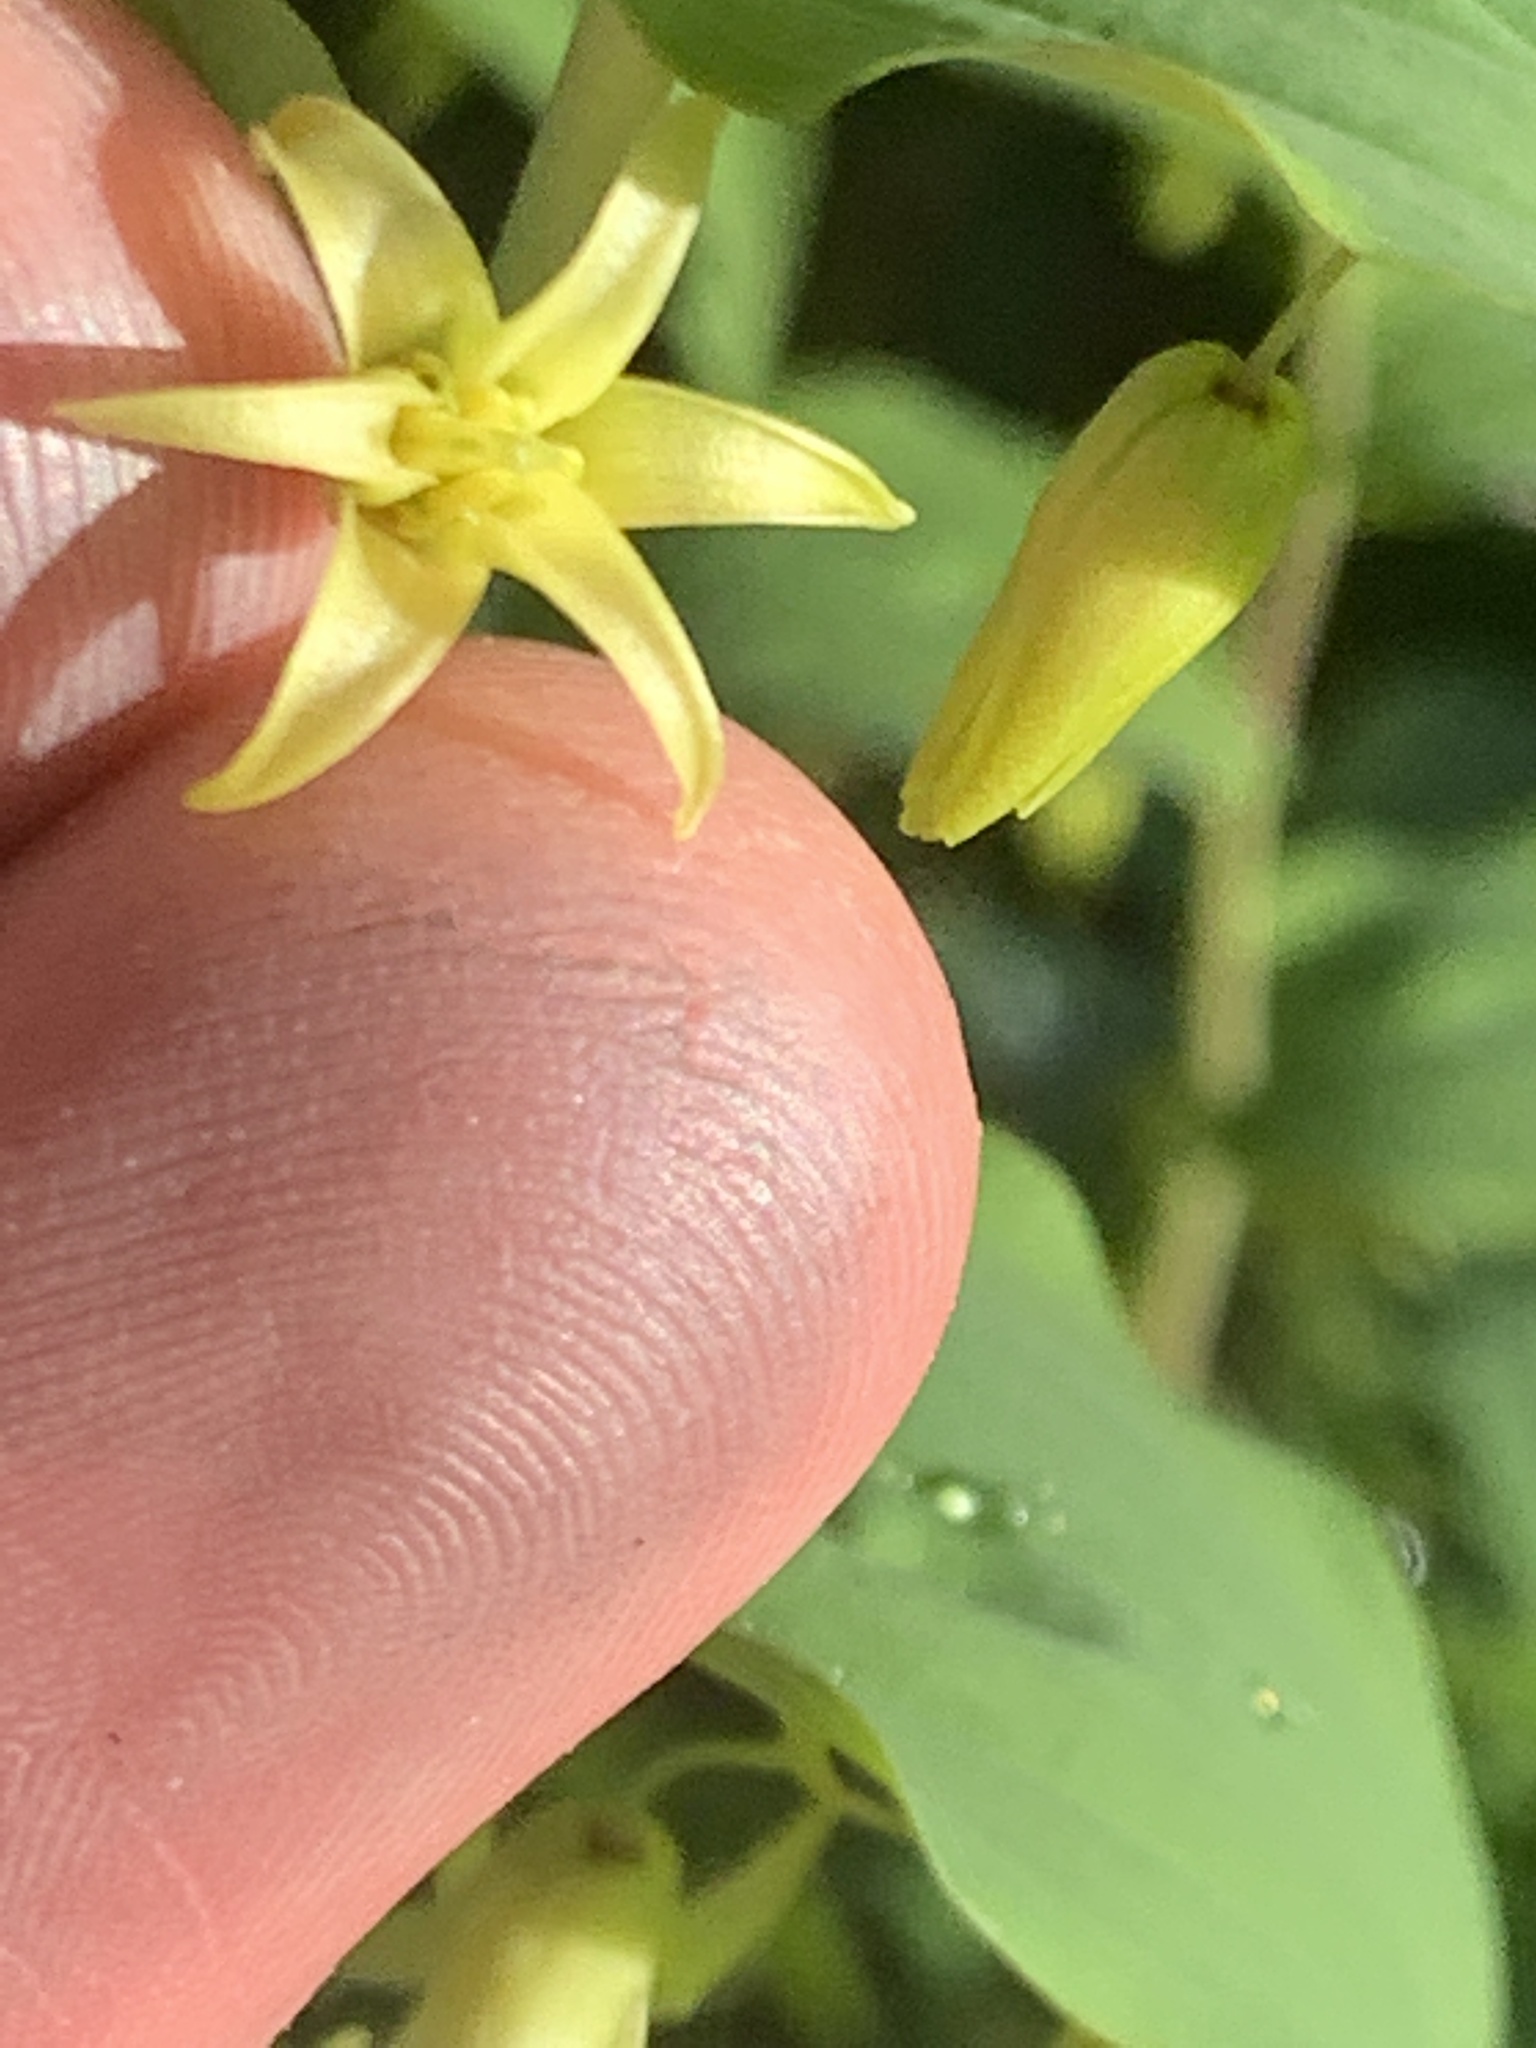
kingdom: Plantae
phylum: Tracheophyta
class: Liliopsida
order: Liliales
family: Liliaceae
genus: Streptopus
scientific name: Streptopus amplexifolius
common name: Clasp twisted stalk
